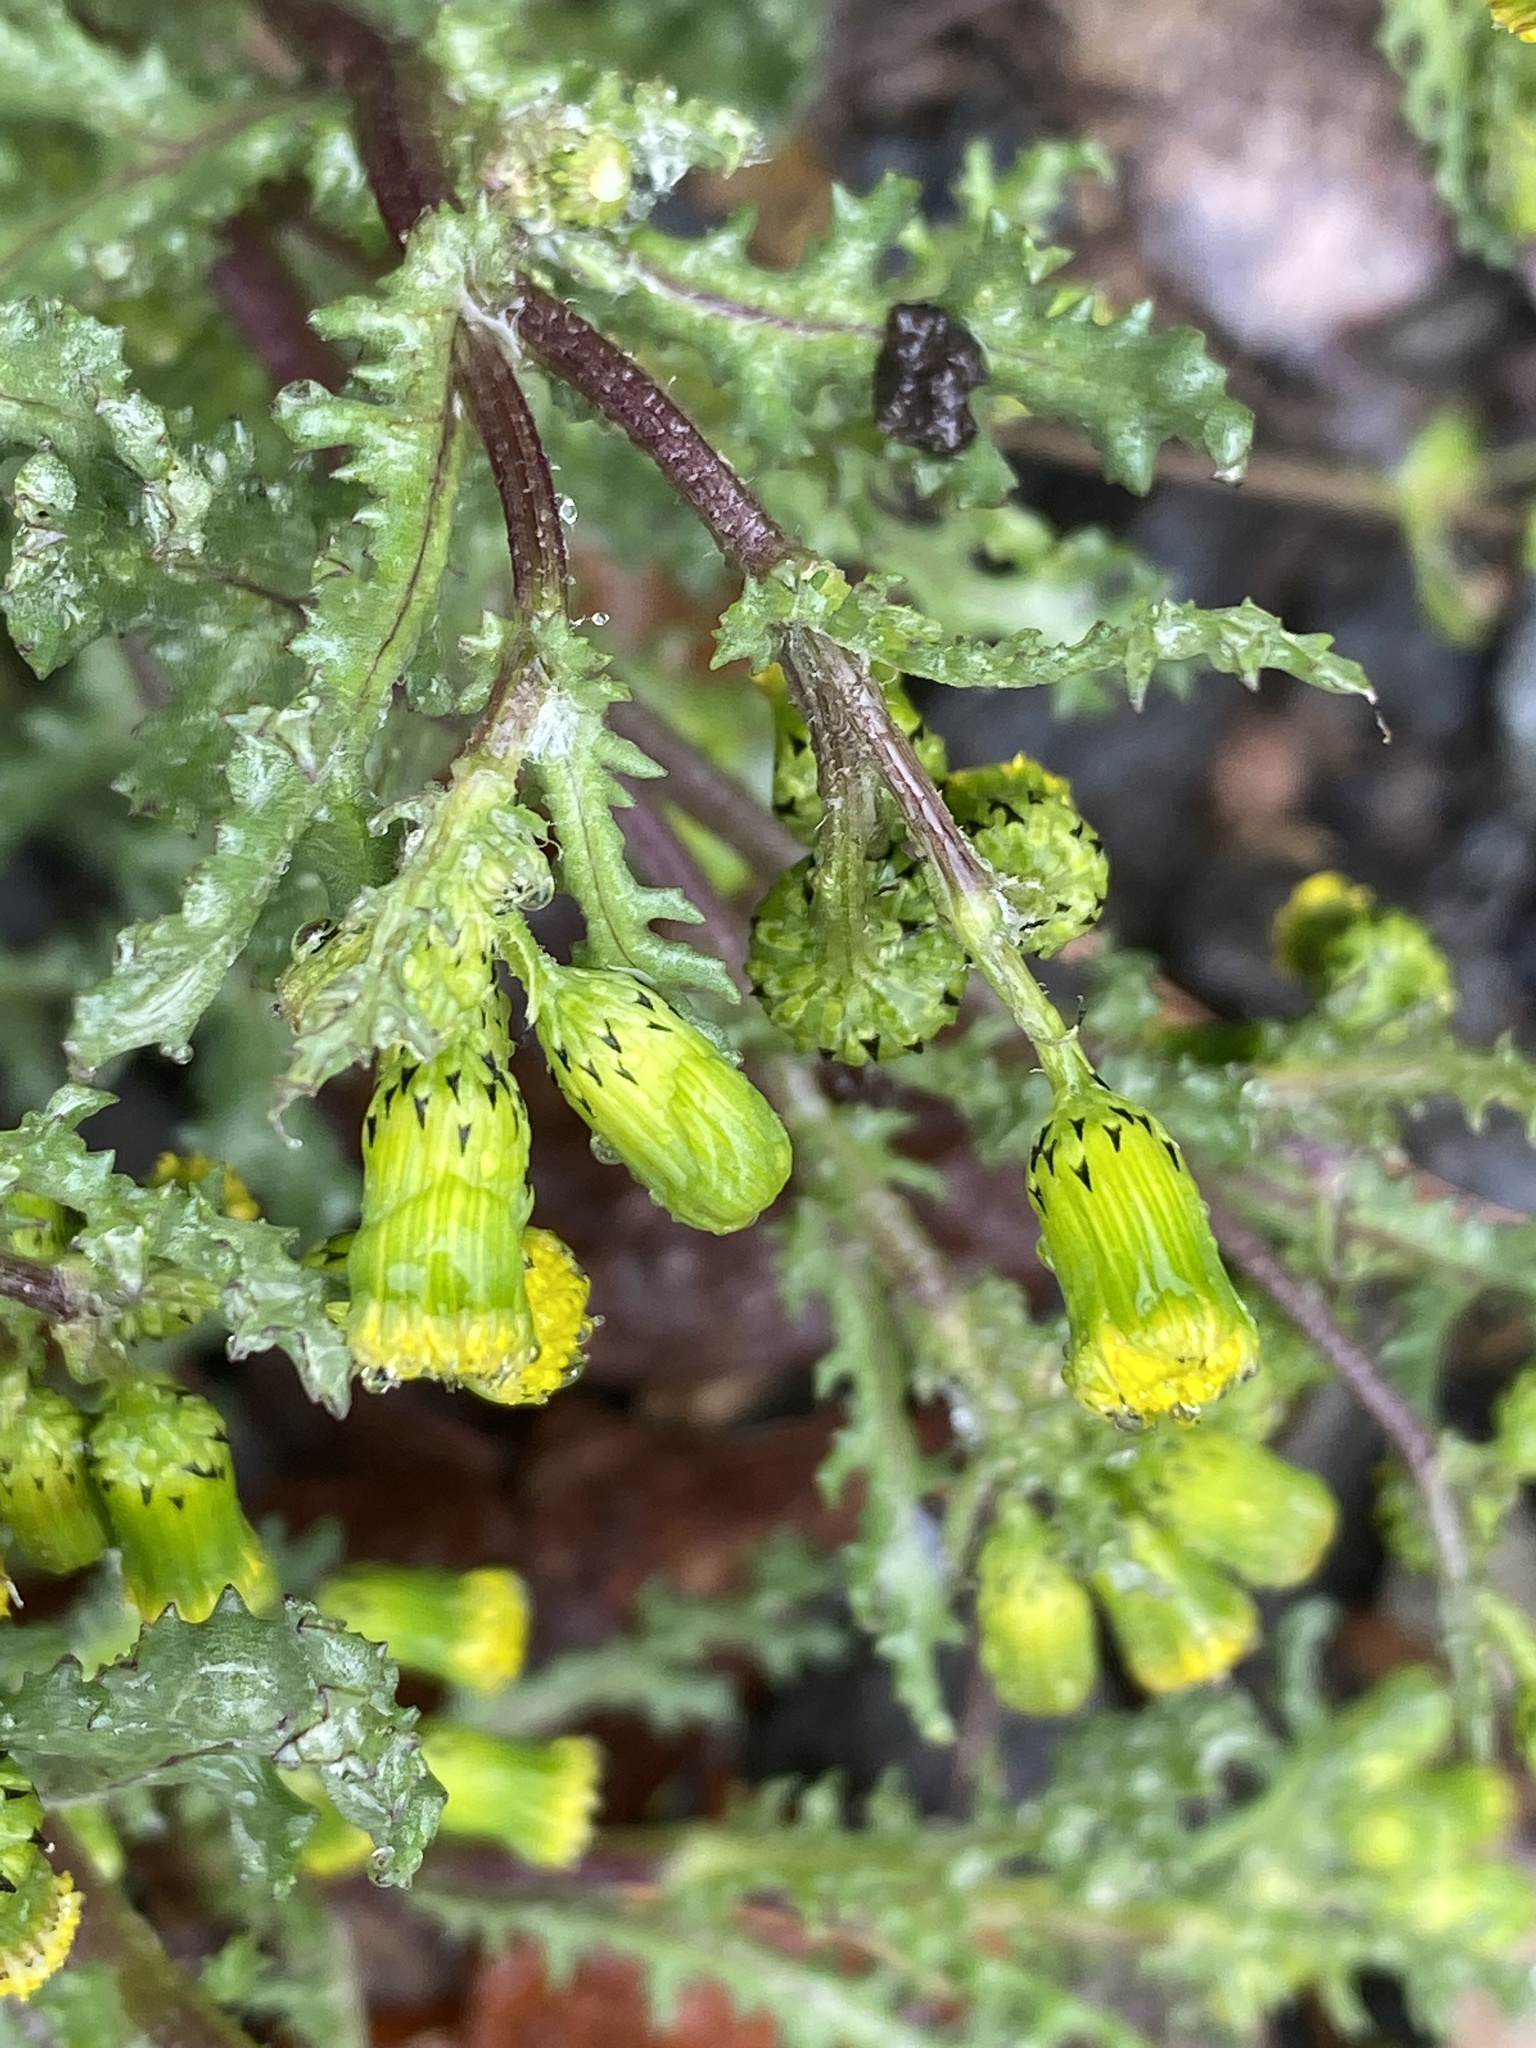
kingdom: Plantae
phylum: Tracheophyta
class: Magnoliopsida
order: Asterales
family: Asteraceae
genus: Senecio
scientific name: Senecio vulgaris
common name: Old-man-in-the-spring
